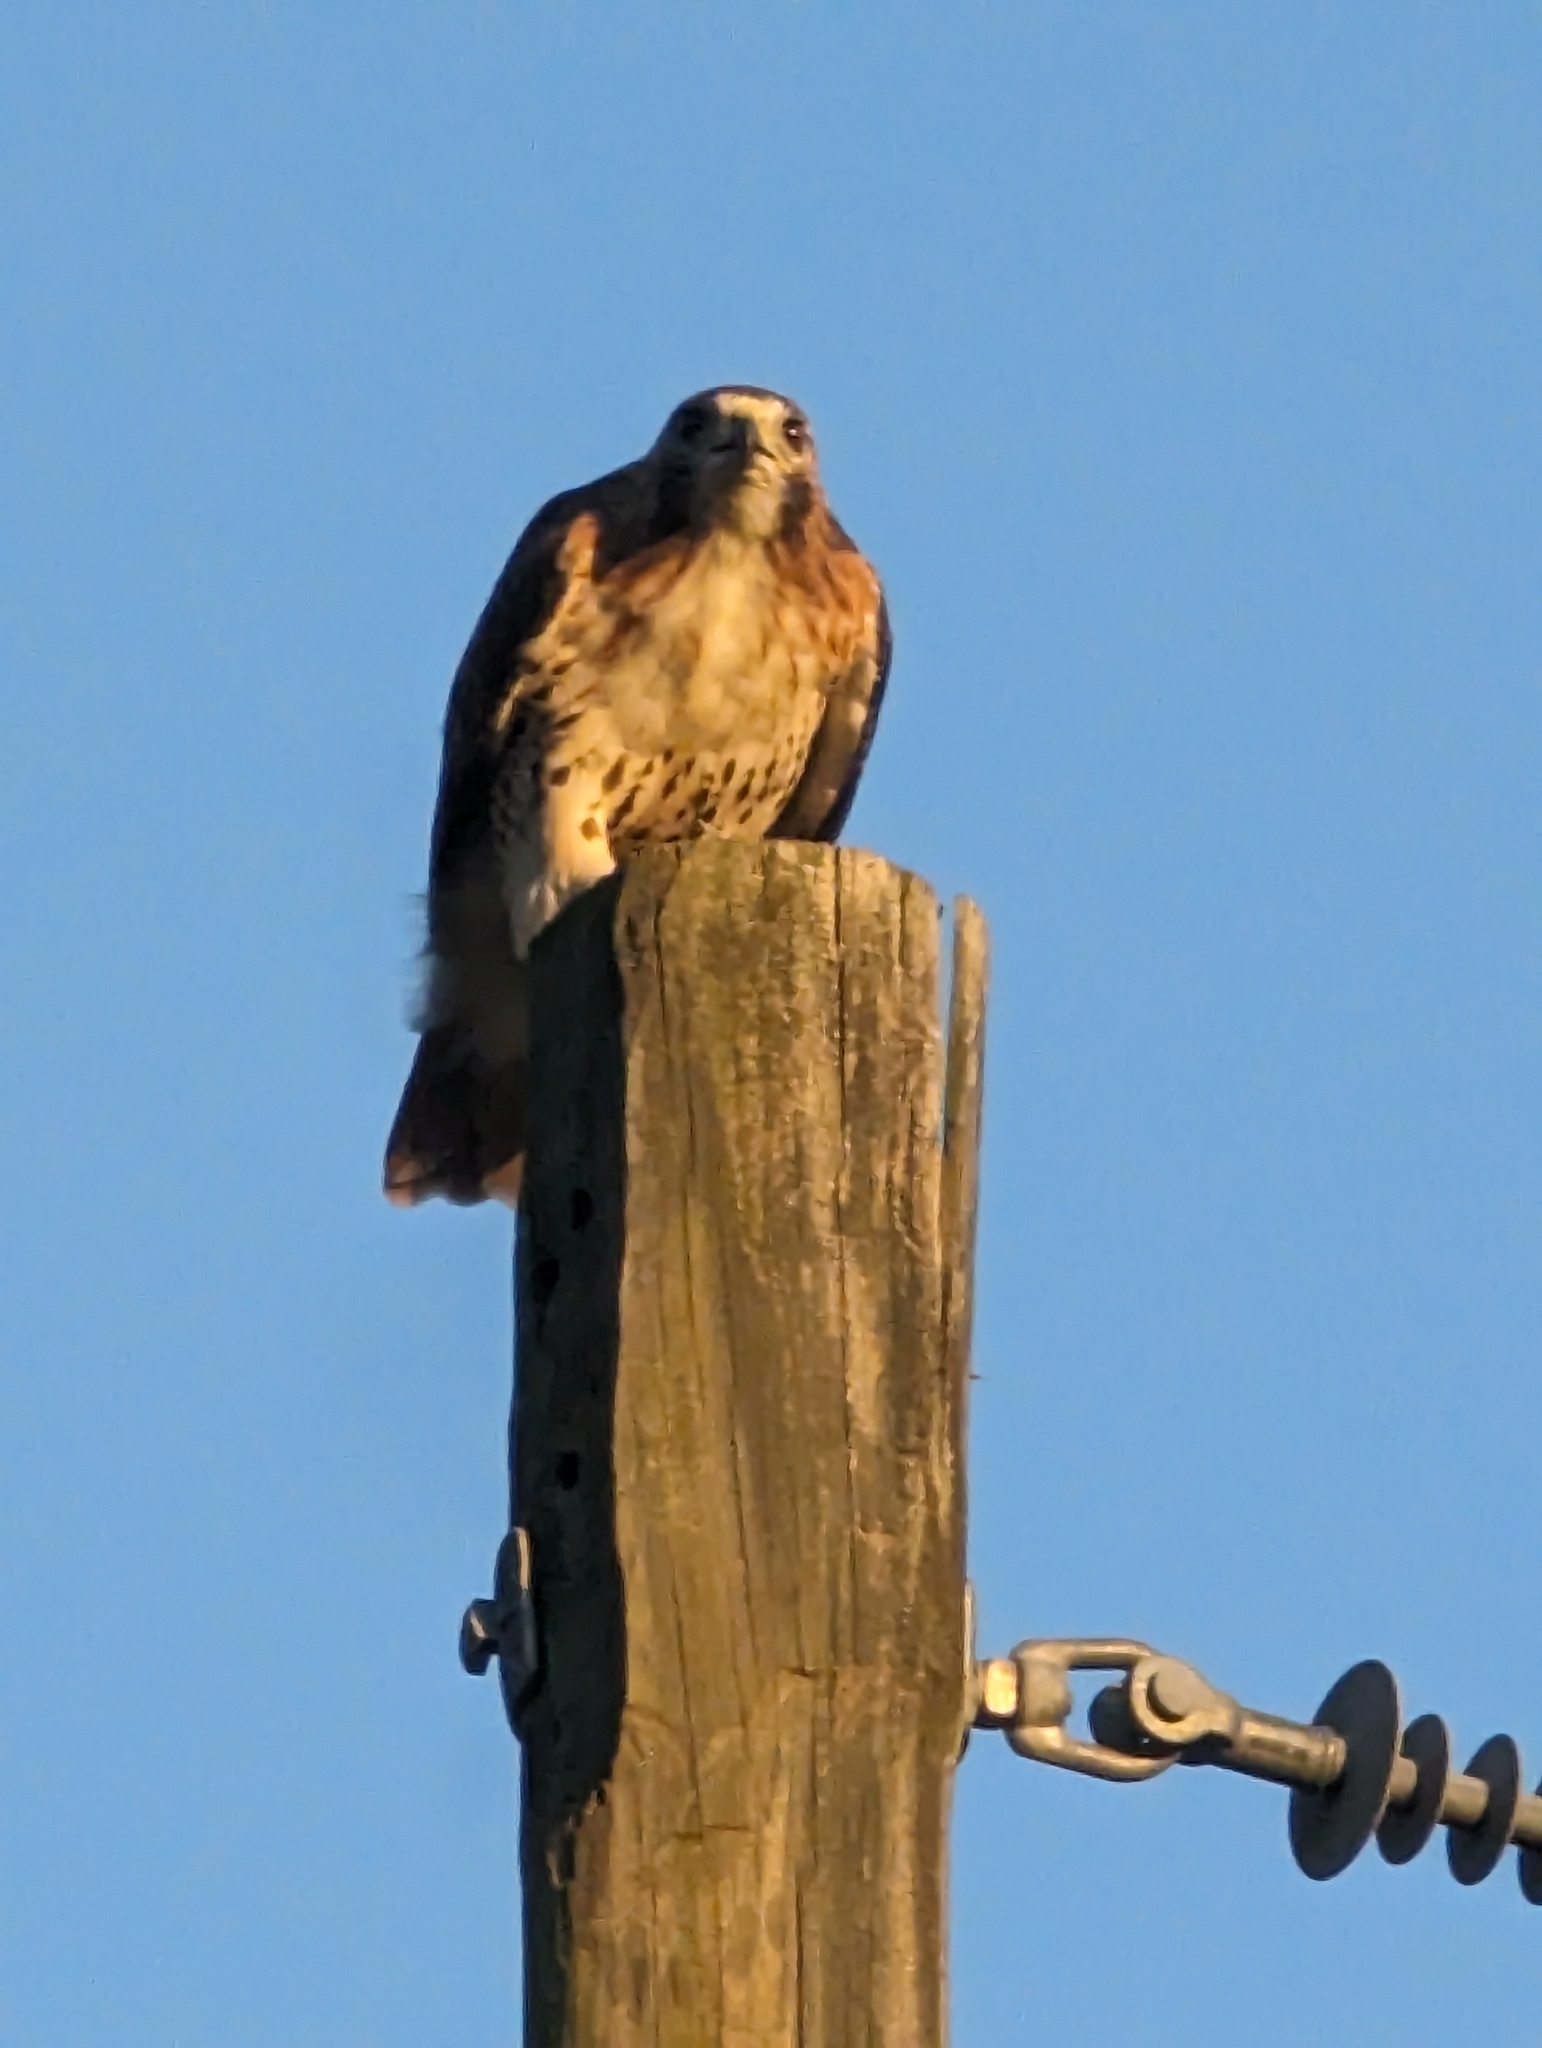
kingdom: Animalia
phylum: Chordata
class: Aves
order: Accipitriformes
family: Accipitridae
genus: Buteo
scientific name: Buteo jamaicensis
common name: Red-tailed hawk
